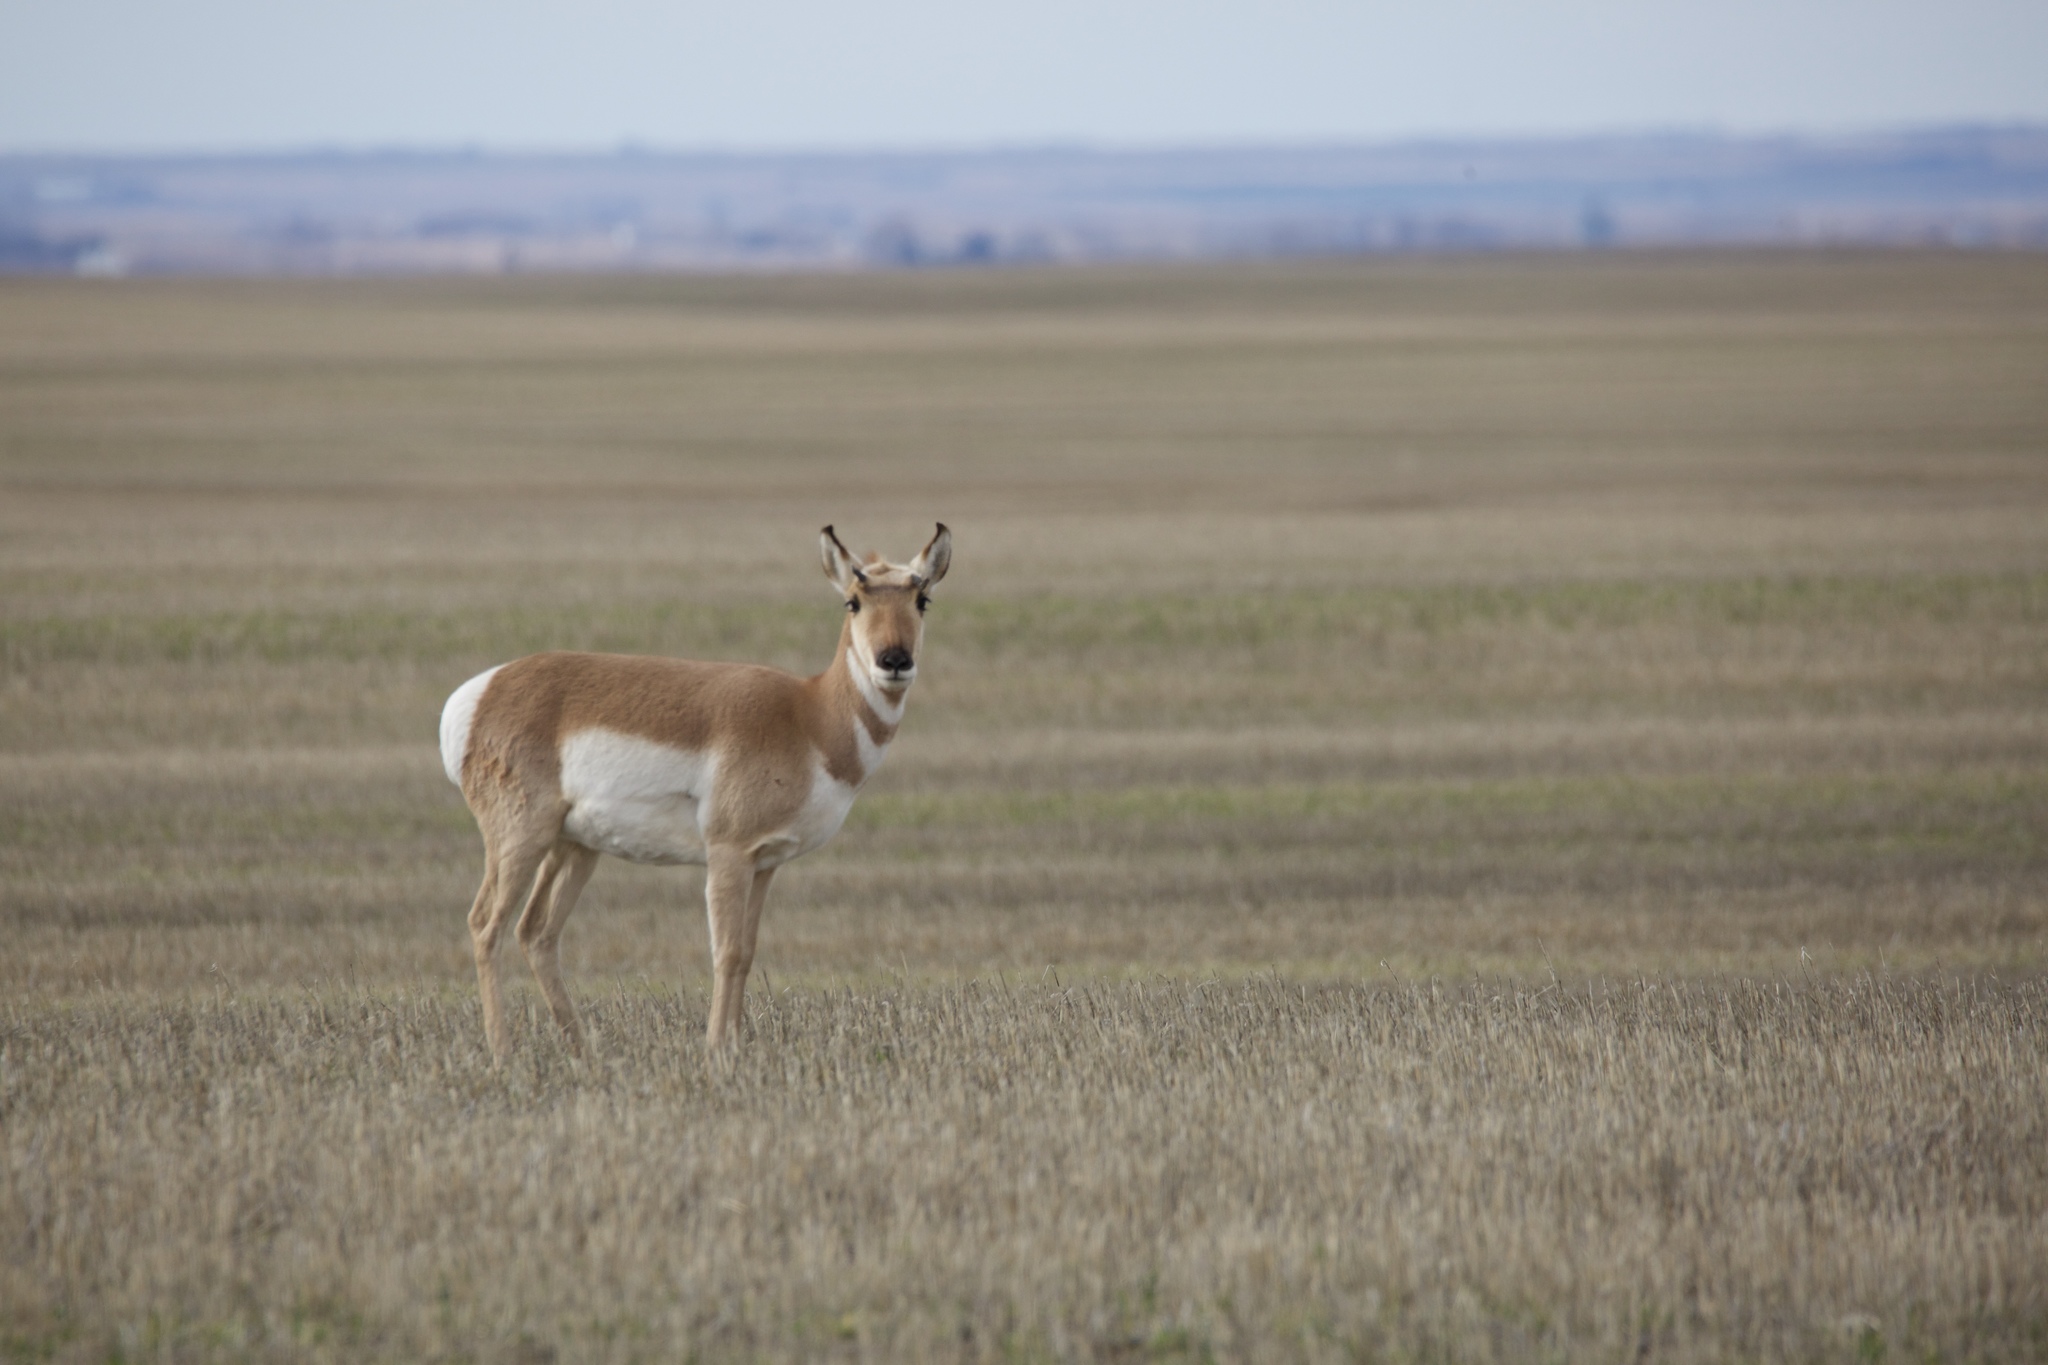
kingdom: Animalia
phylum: Chordata
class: Mammalia
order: Artiodactyla
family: Antilocapridae
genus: Antilocapra
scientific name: Antilocapra americana
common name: Pronghorn
